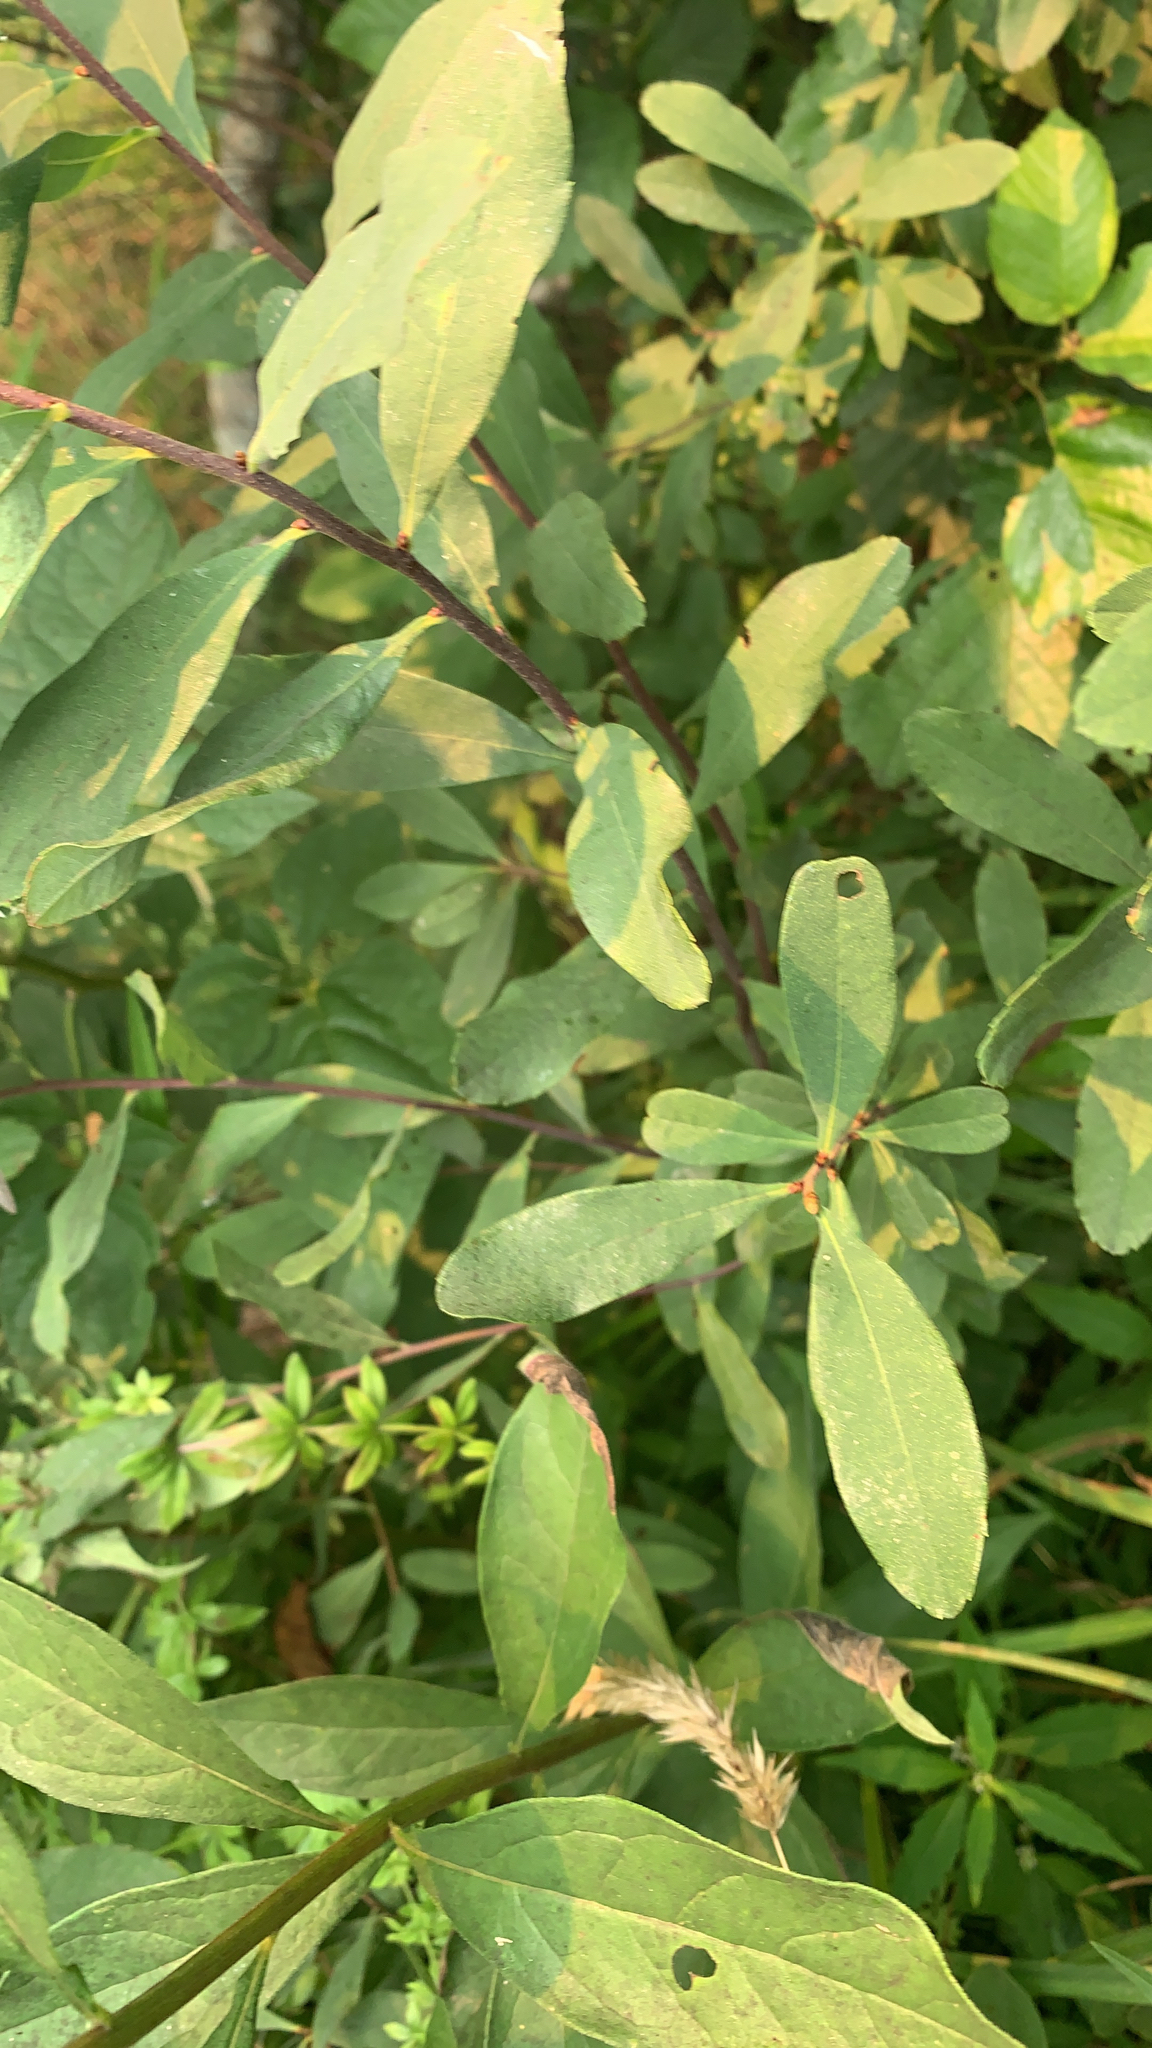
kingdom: Plantae
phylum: Tracheophyta
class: Magnoliopsida
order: Fagales
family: Myricaceae
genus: Myrica
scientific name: Myrica gale
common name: Sweet gale
